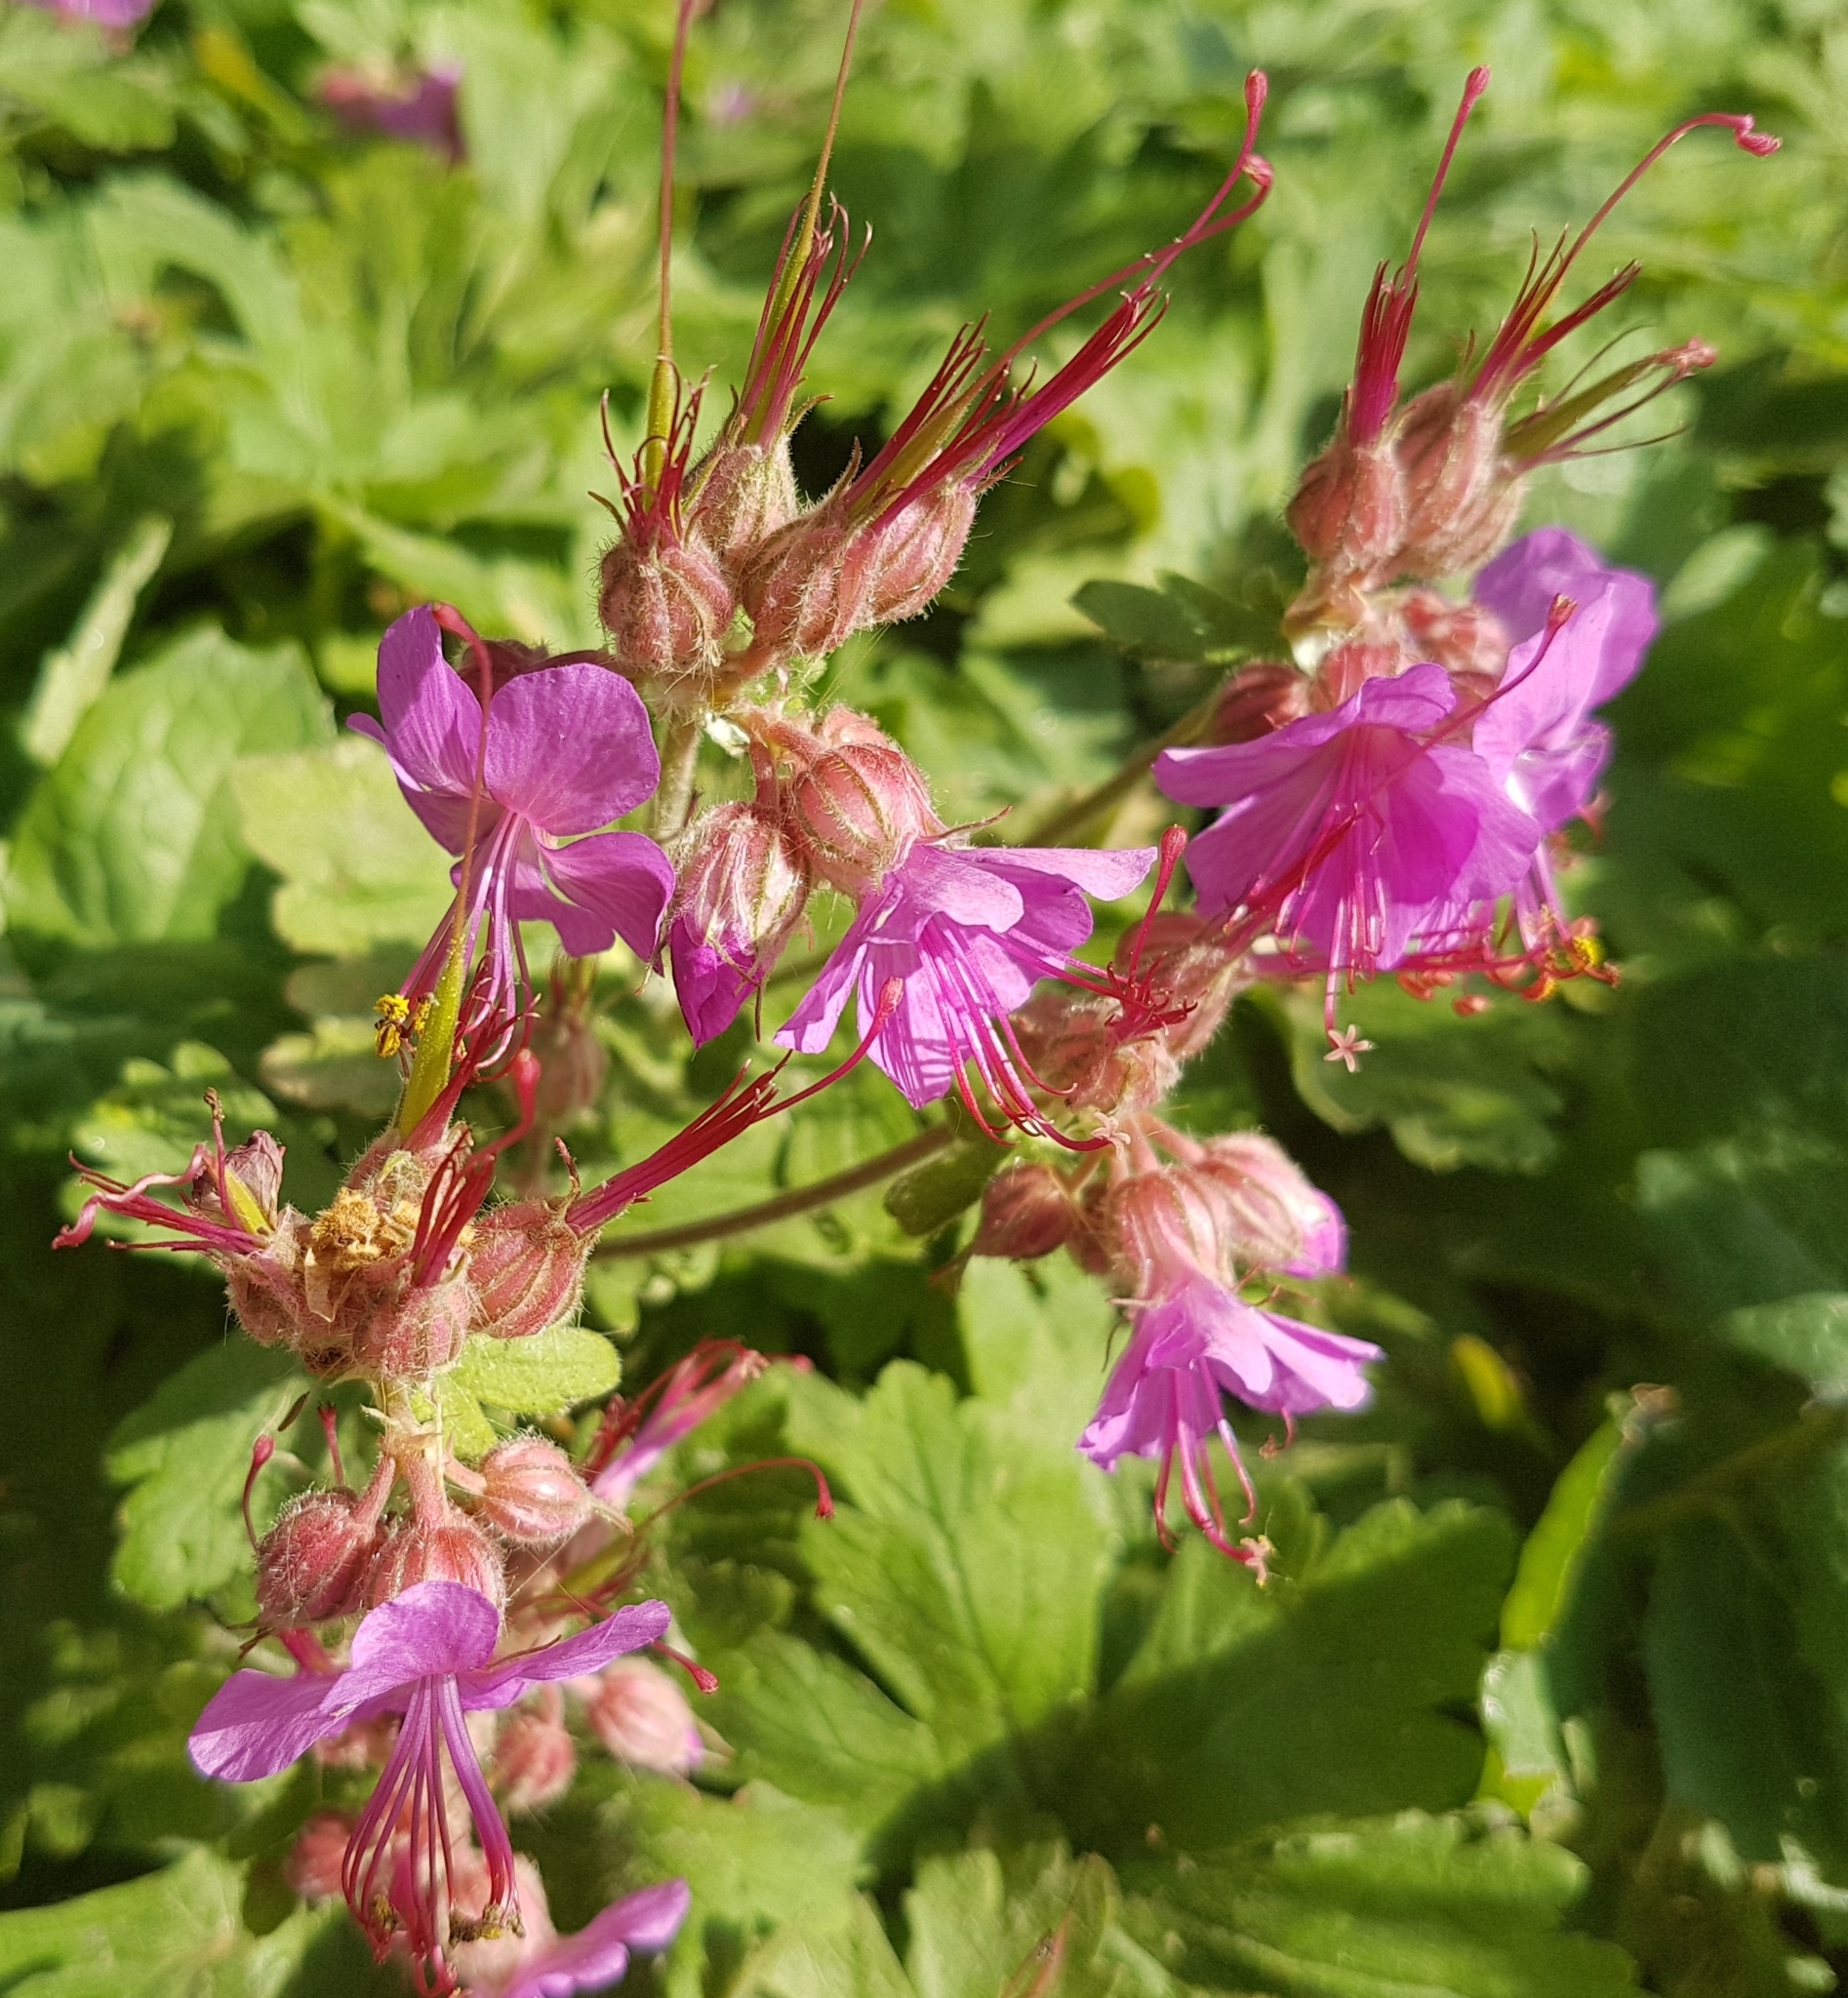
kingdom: Plantae
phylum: Tracheophyta
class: Magnoliopsida
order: Geraniales
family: Geraniaceae
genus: Geranium
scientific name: Geranium macrorrhizum
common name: Rock crane's-bill
